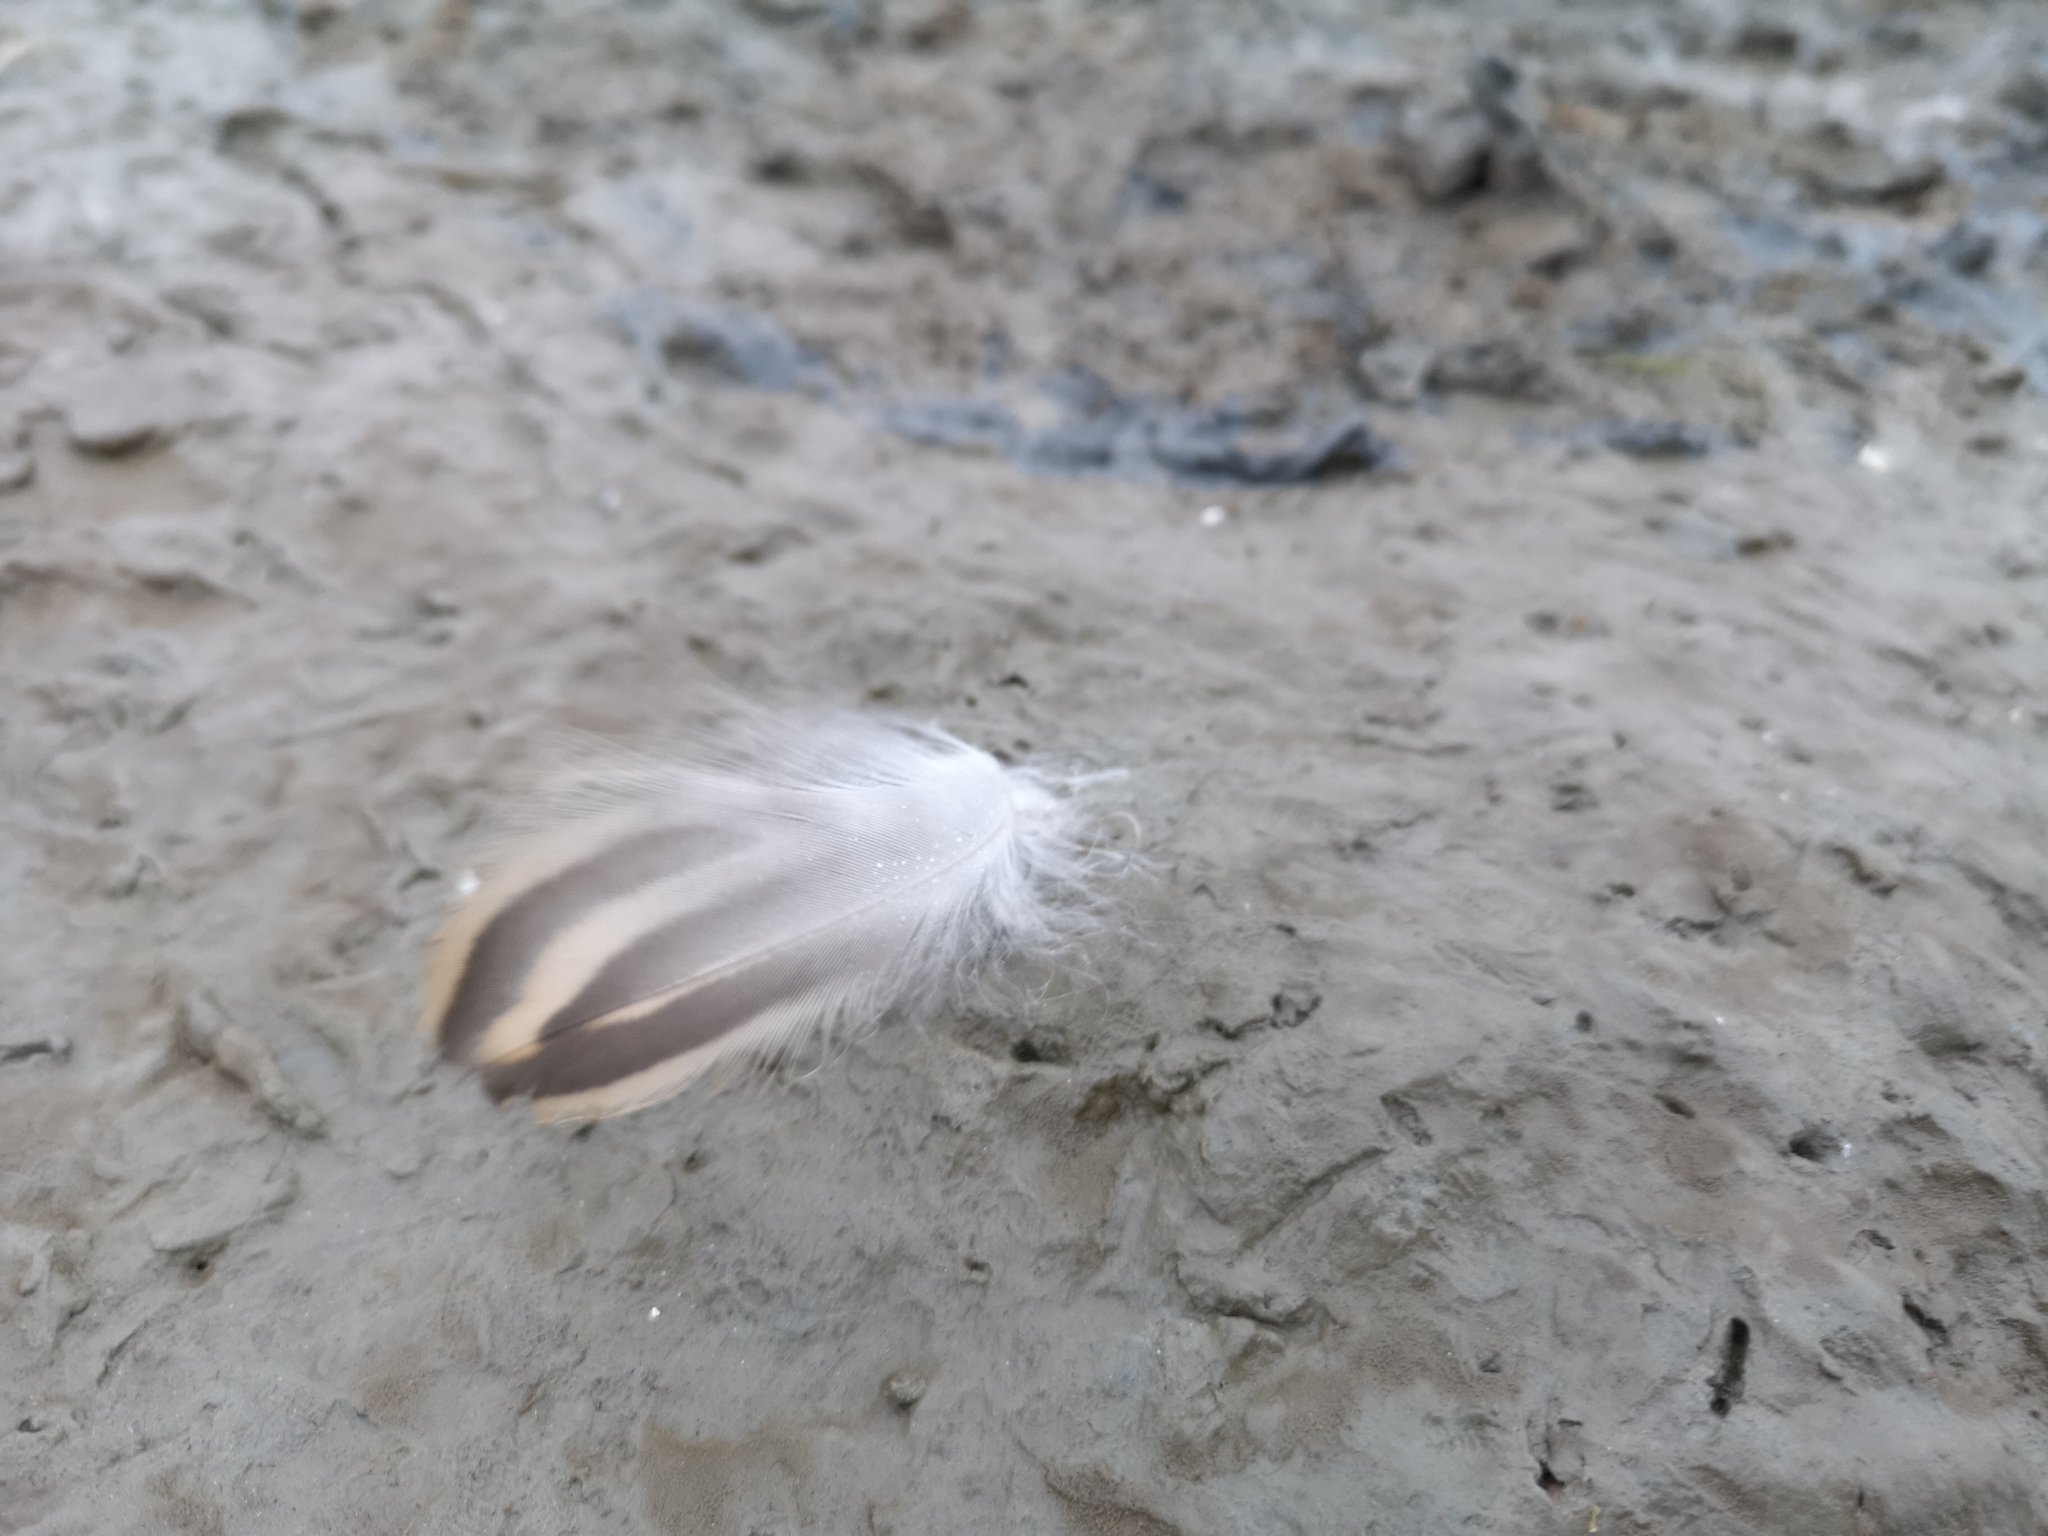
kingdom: Animalia
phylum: Chordata
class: Aves
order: Anseriformes
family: Anatidae
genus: Anas
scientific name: Anas platyrhynchos
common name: Mallard
